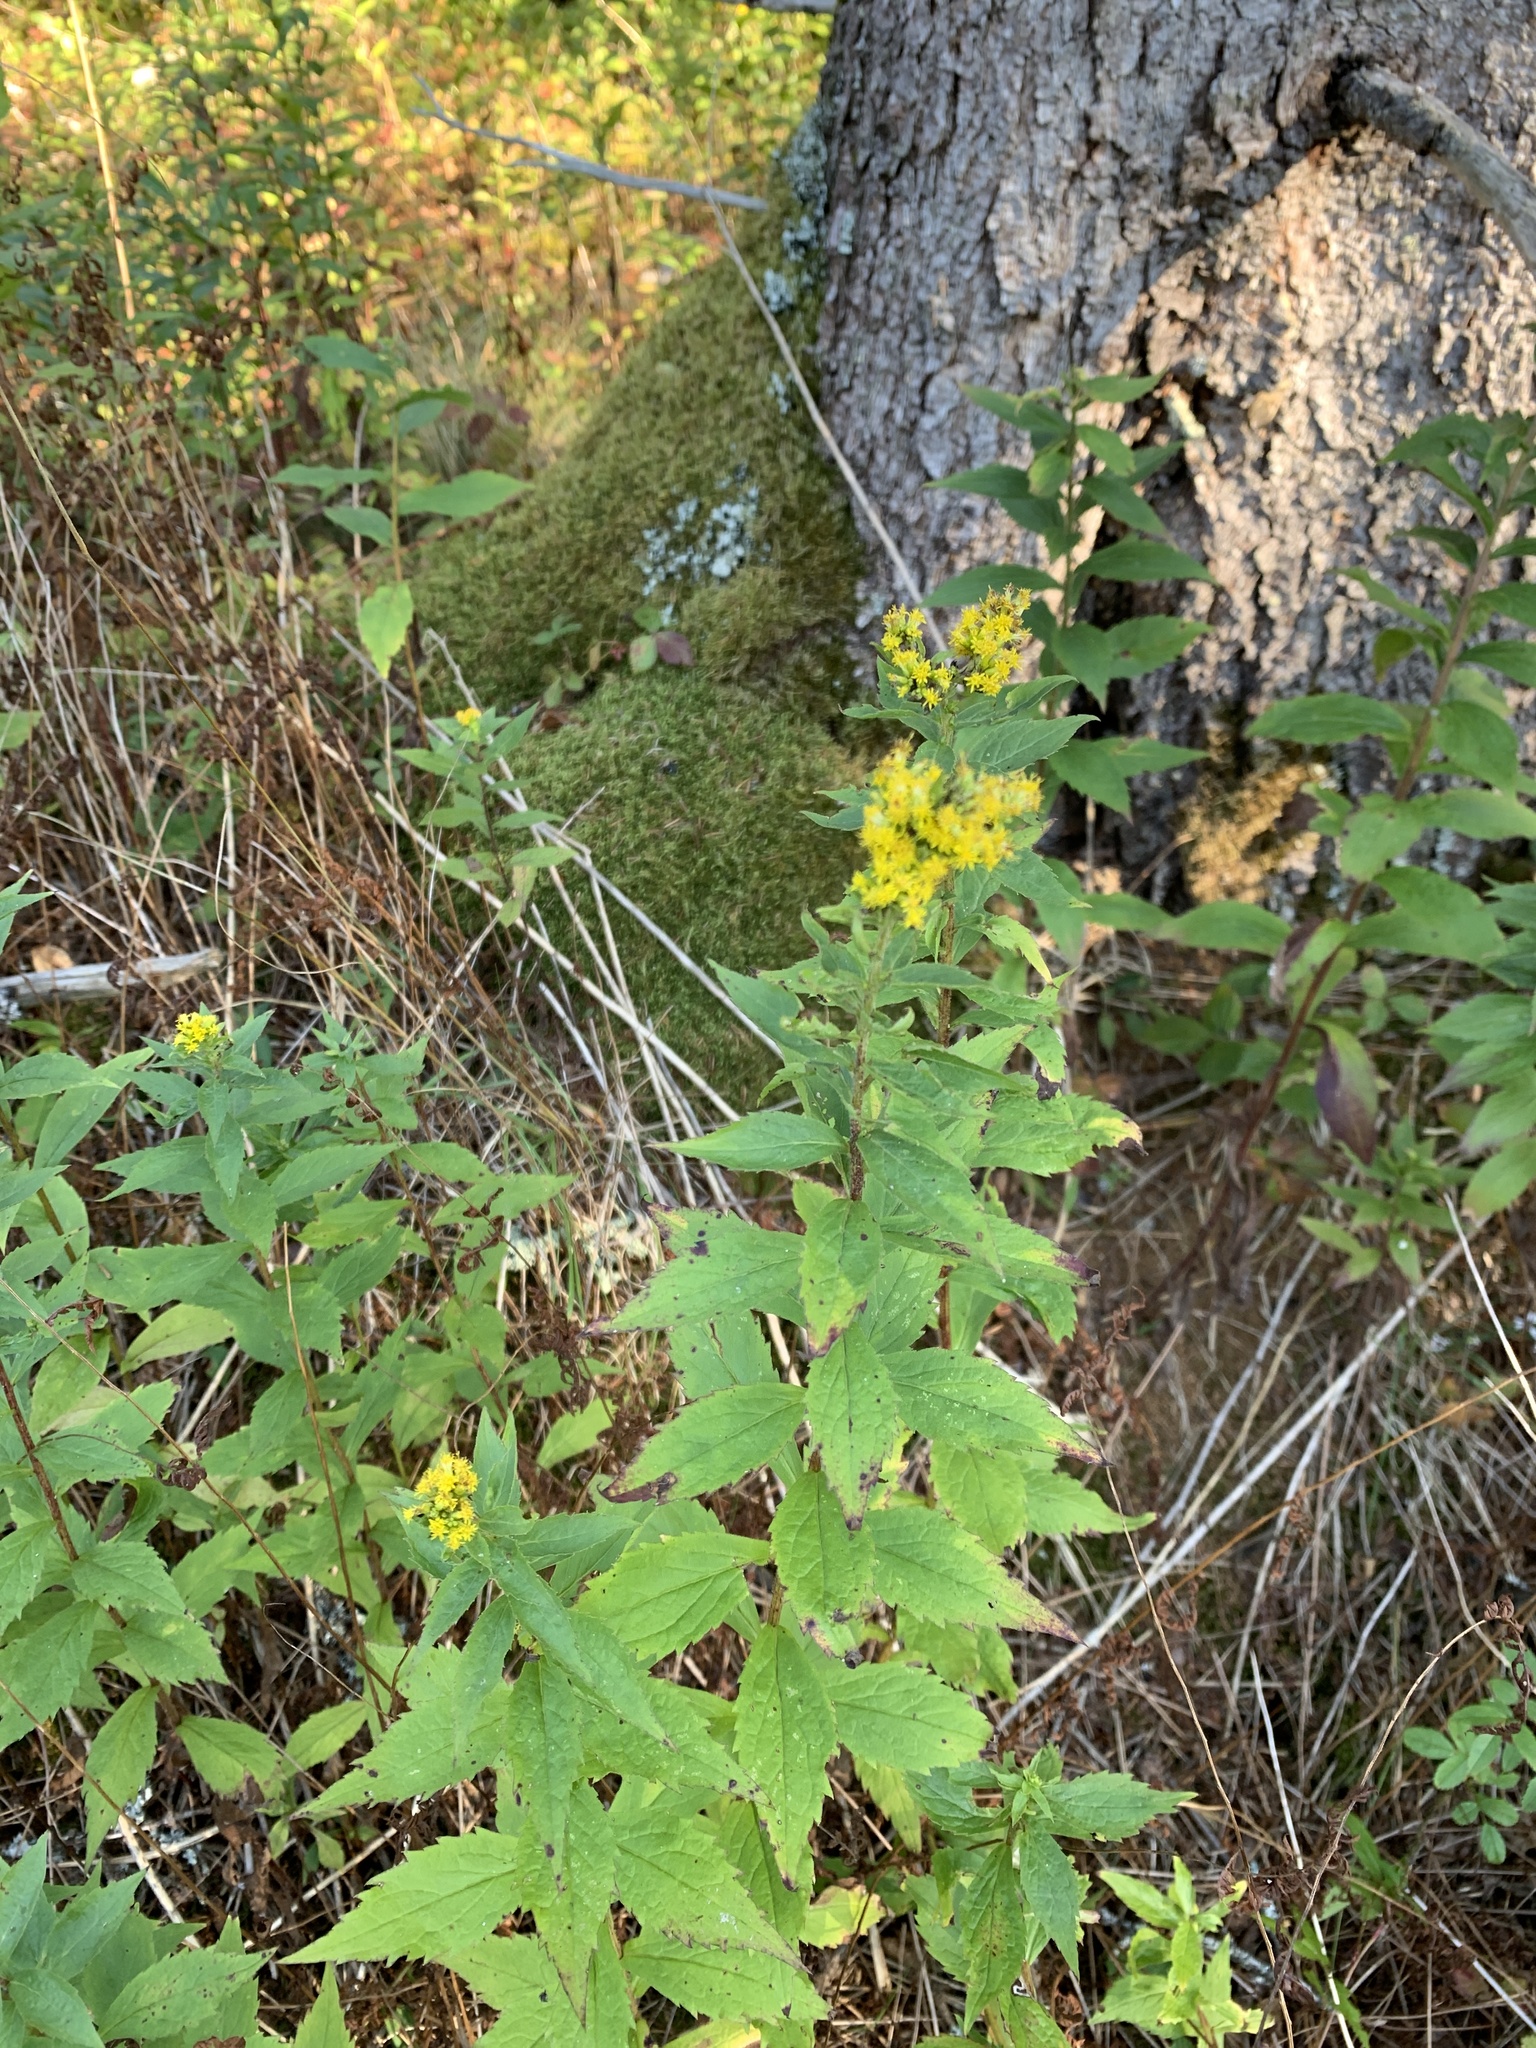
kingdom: Plantae
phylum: Tracheophyta
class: Magnoliopsida
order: Asterales
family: Asteraceae
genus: Solidago
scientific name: Solidago rugosa
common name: Rough-stemmed goldenrod
